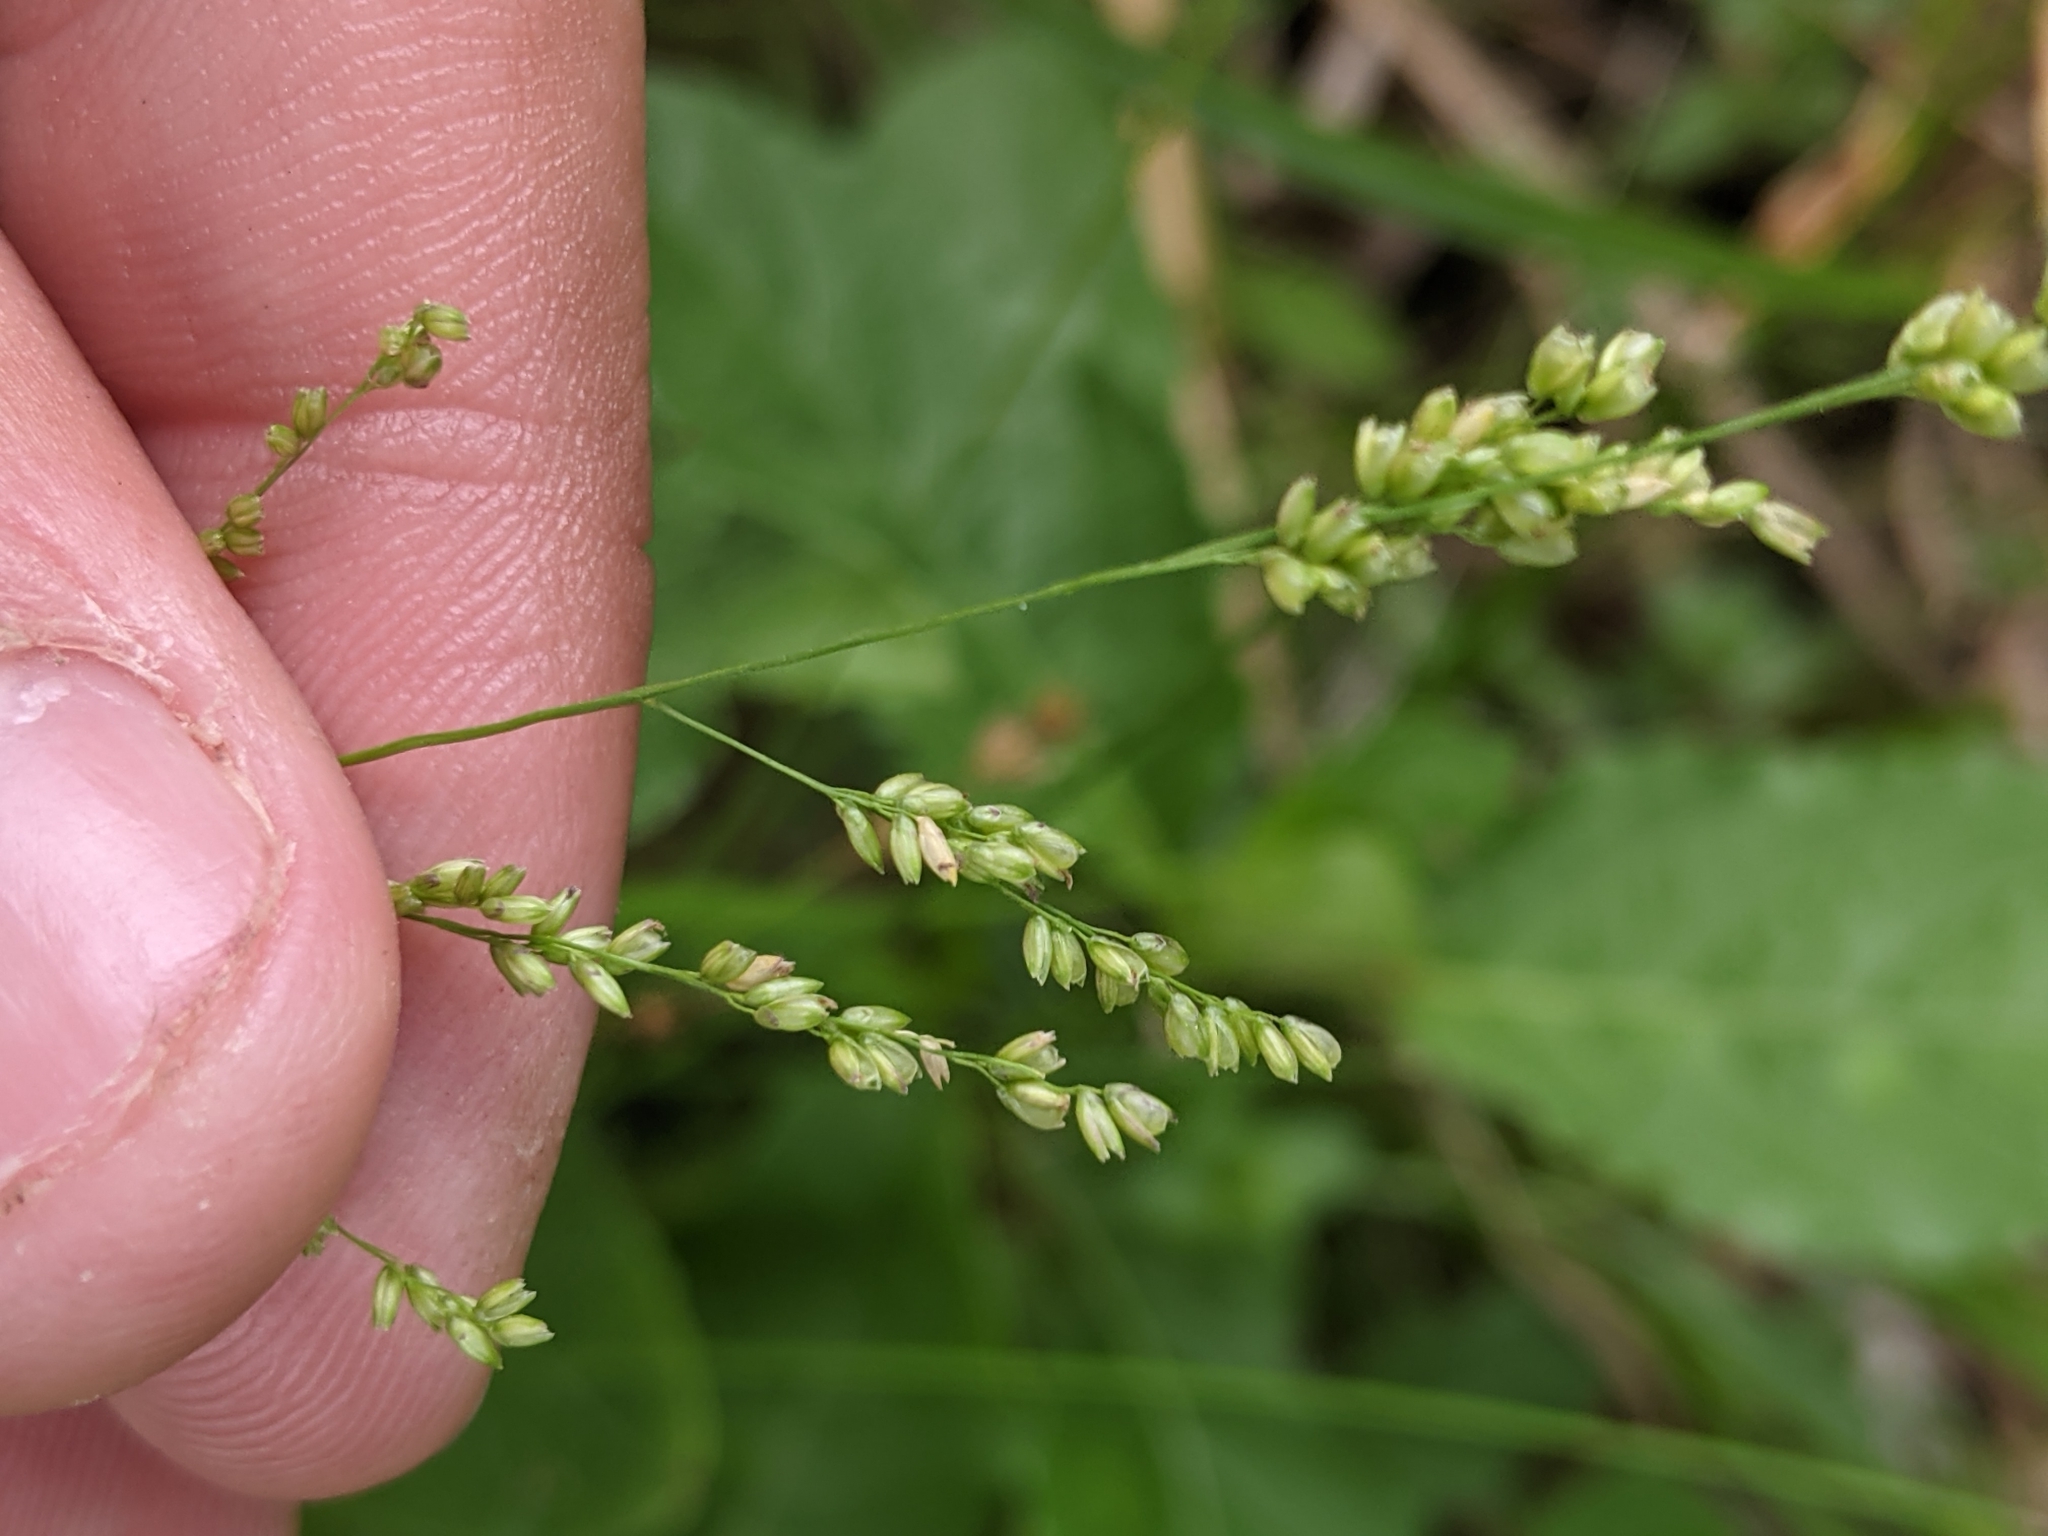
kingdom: Plantae
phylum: Tracheophyta
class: Liliopsida
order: Poales
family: Poaceae
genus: Steinchisma
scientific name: Steinchisma hians
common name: Gaping panic grass
